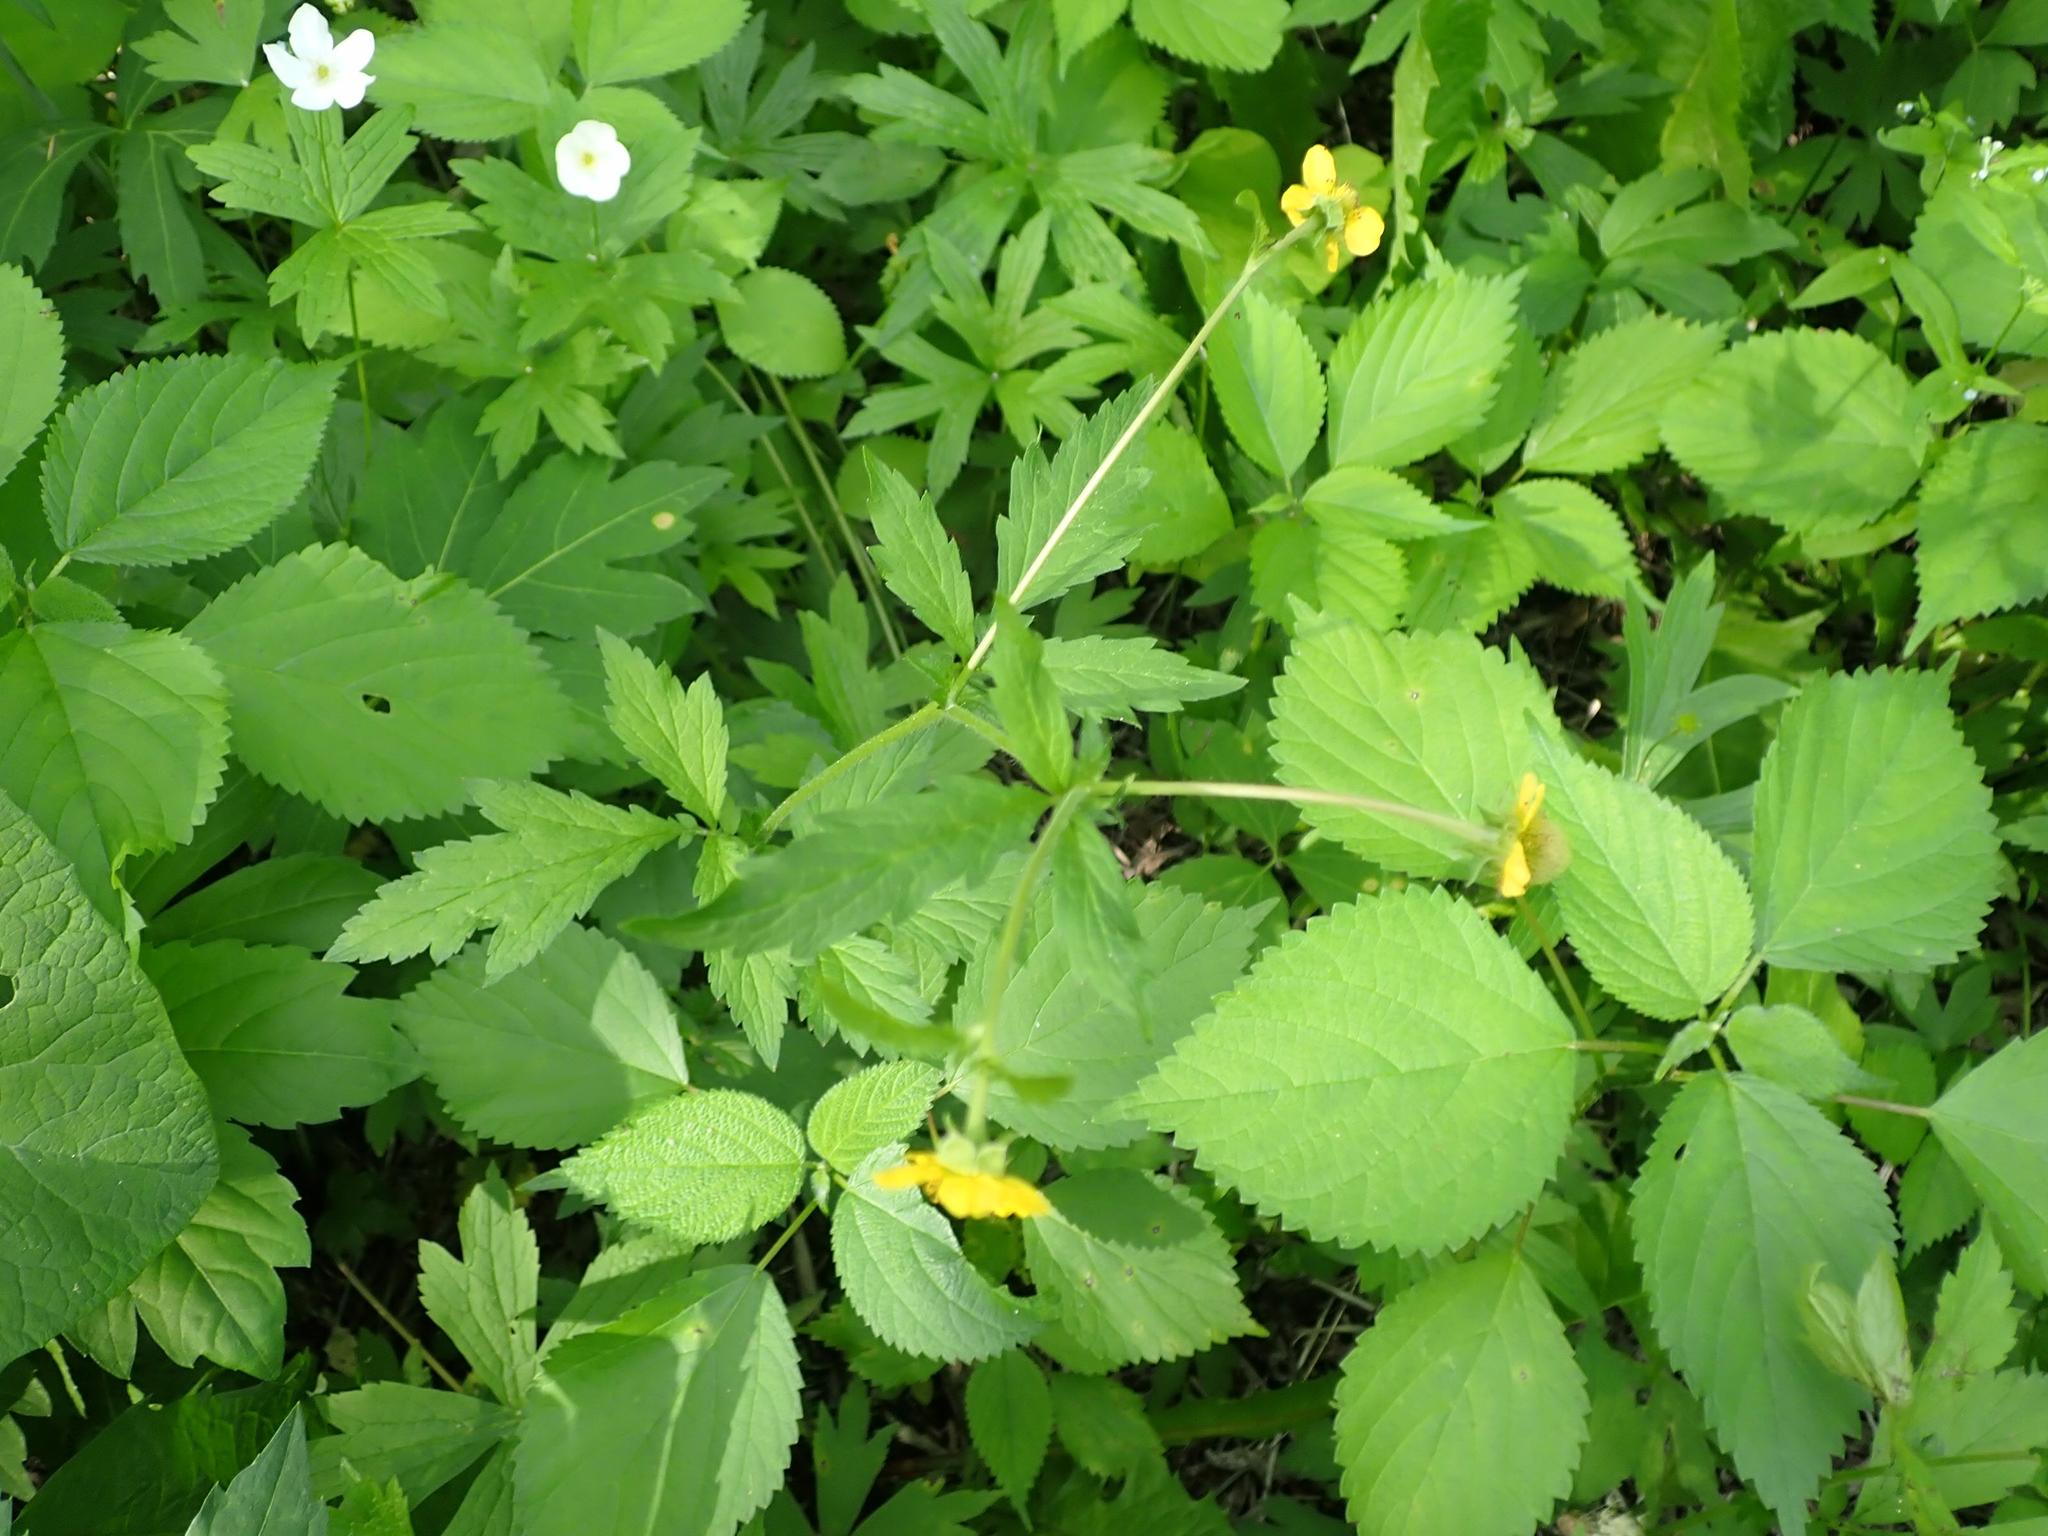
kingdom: Plantae
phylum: Tracheophyta
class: Magnoliopsida
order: Rosales
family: Rosaceae
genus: Geum
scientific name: Geum aleppicum
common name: Yellow avens
